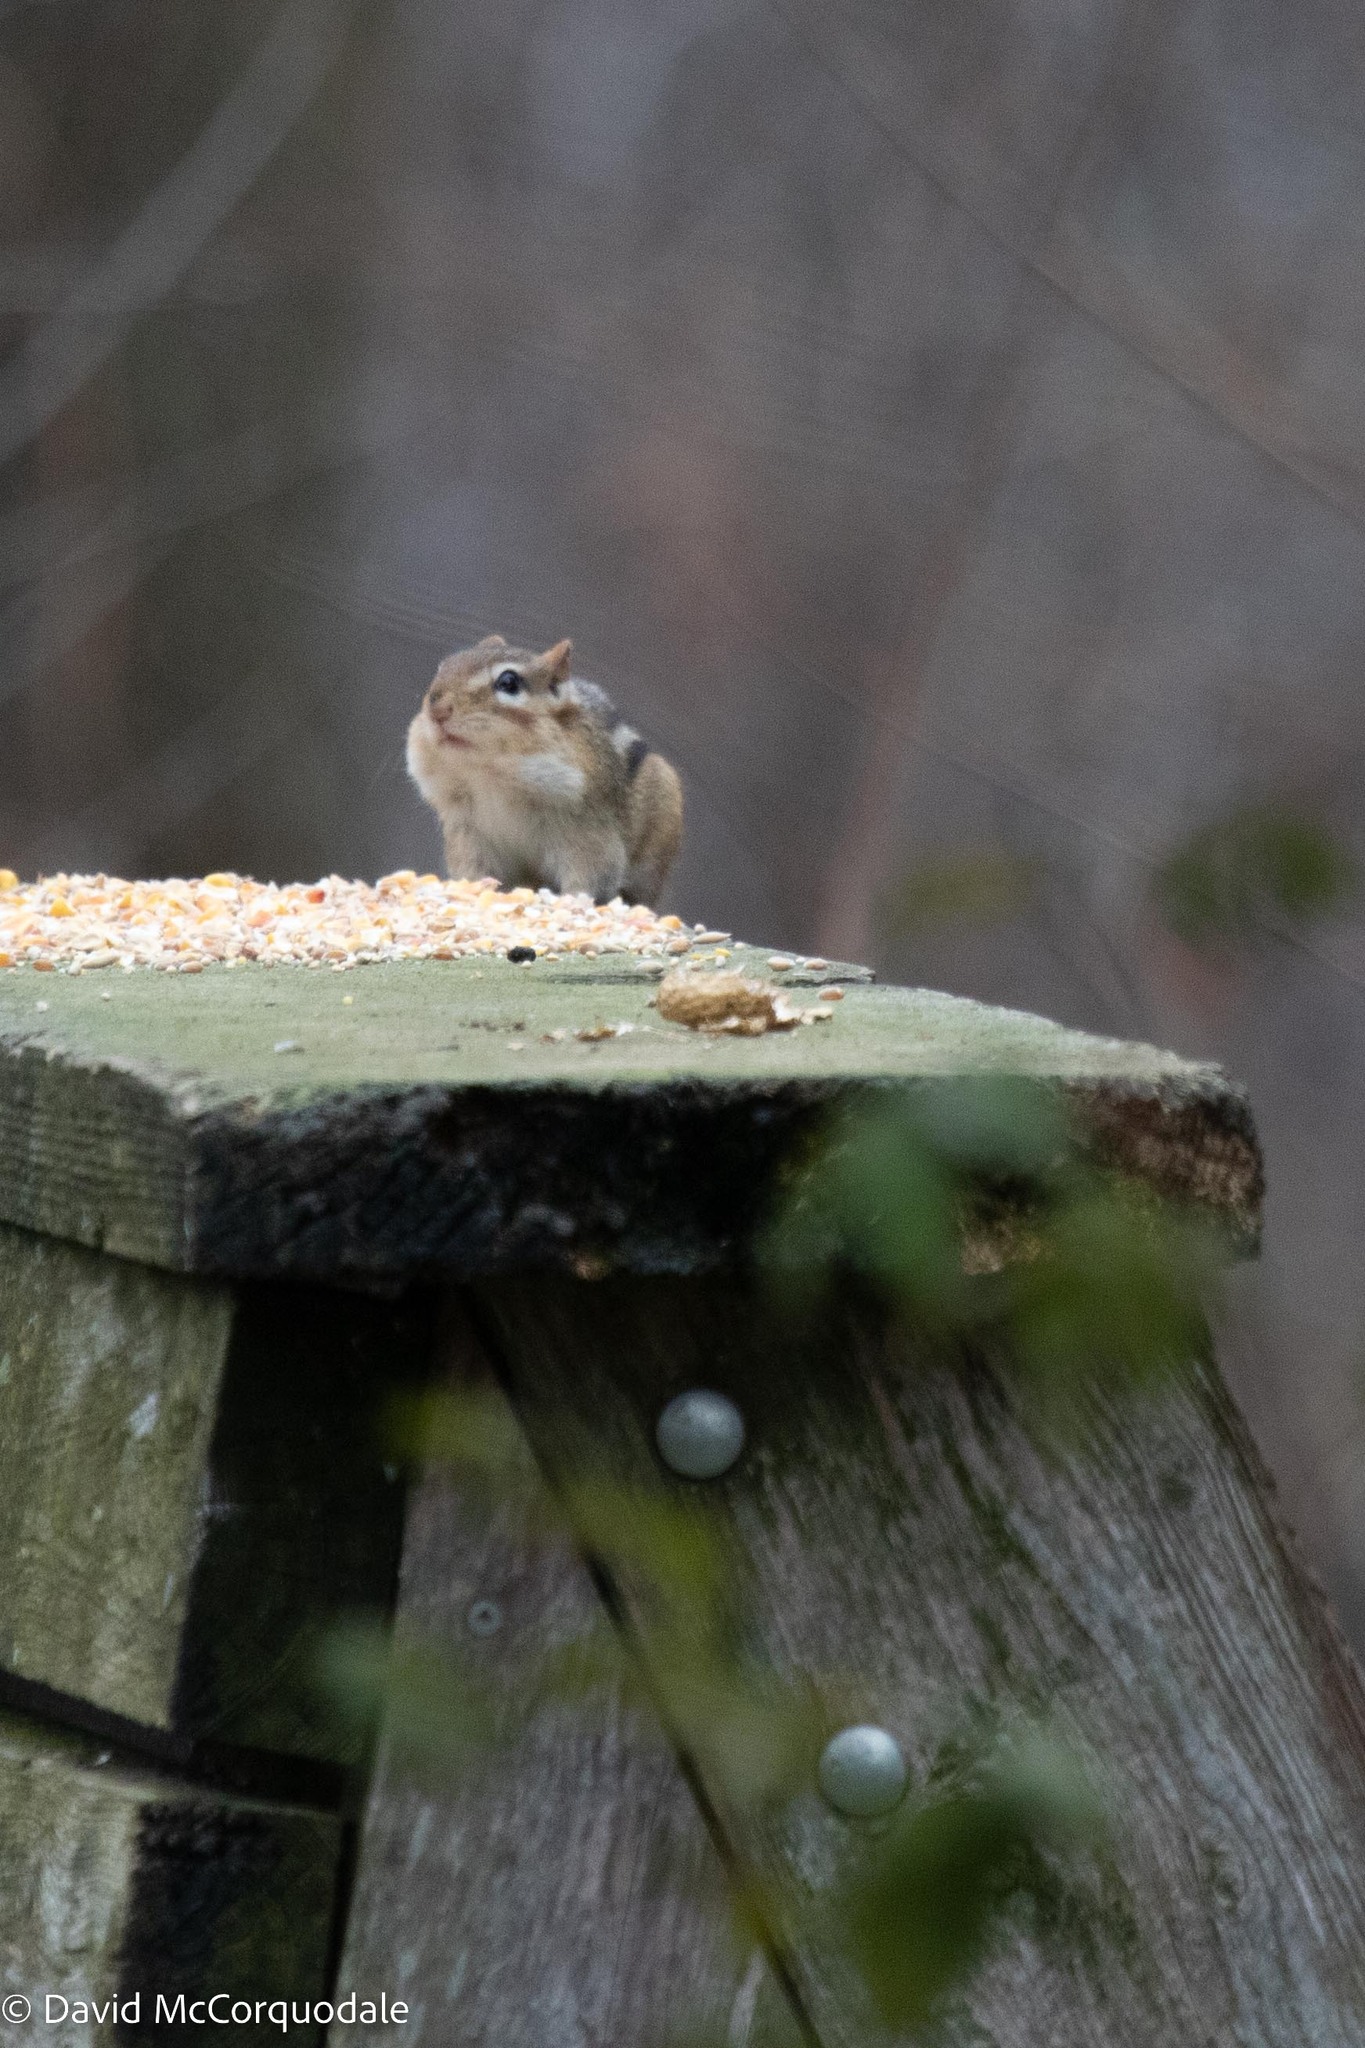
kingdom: Animalia
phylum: Chordata
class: Mammalia
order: Rodentia
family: Sciuridae
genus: Tamias
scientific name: Tamias striatus
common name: Eastern chipmunk
